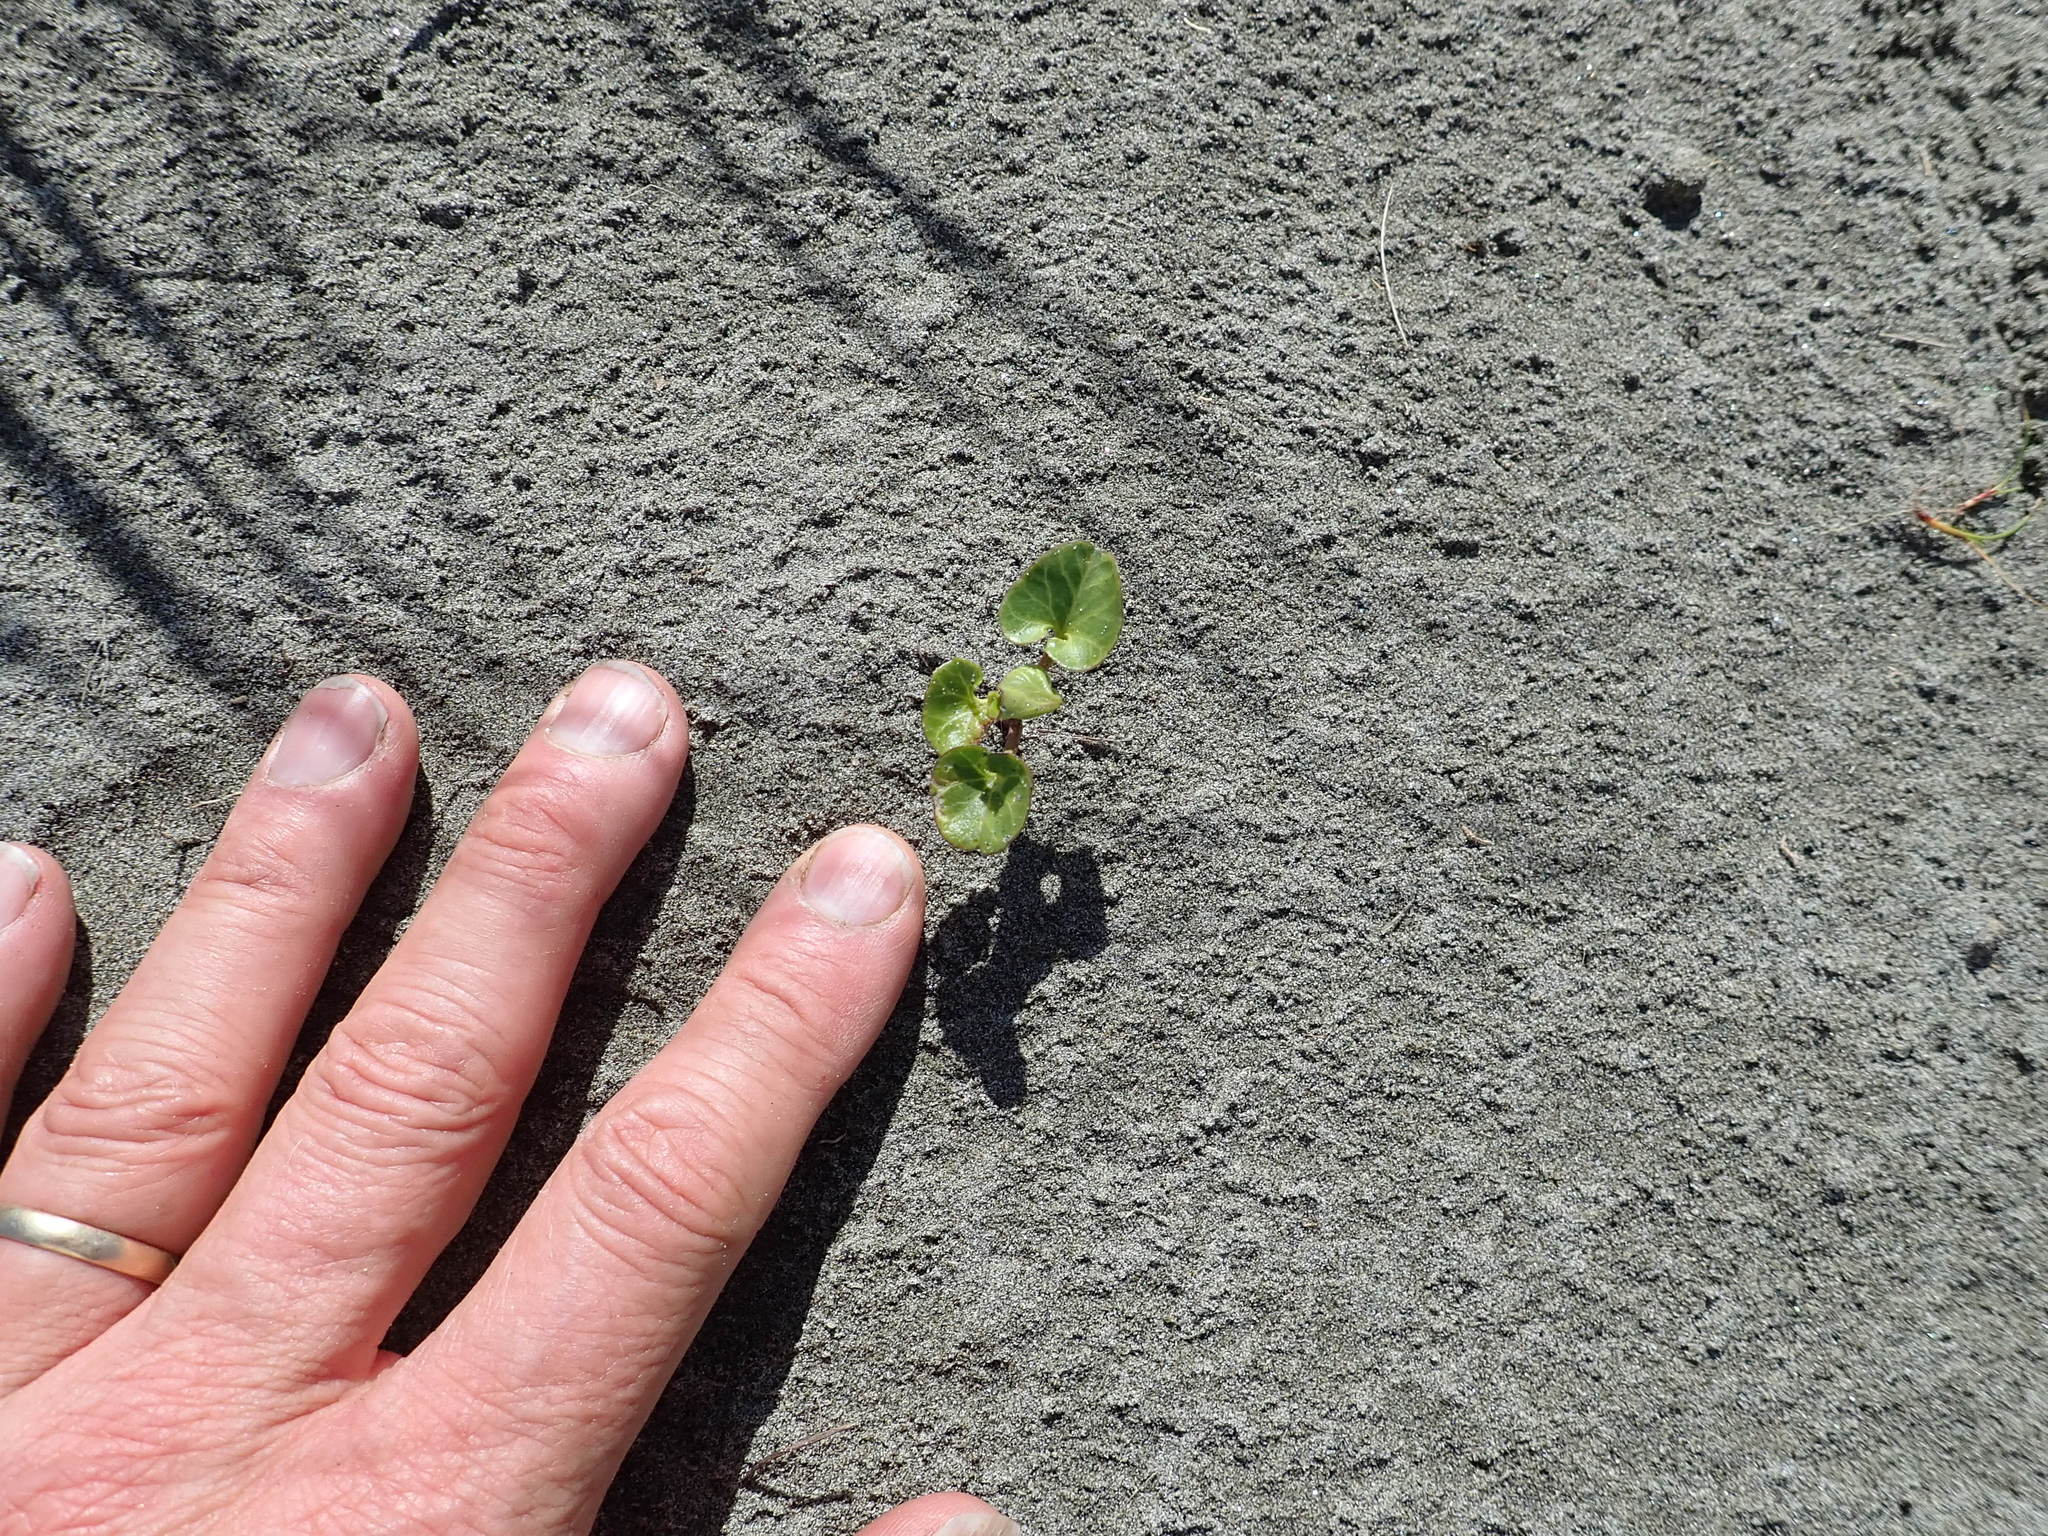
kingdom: Plantae
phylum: Tracheophyta
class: Magnoliopsida
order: Solanales
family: Convolvulaceae
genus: Calystegia
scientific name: Calystegia soldanella
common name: Sea bindweed
